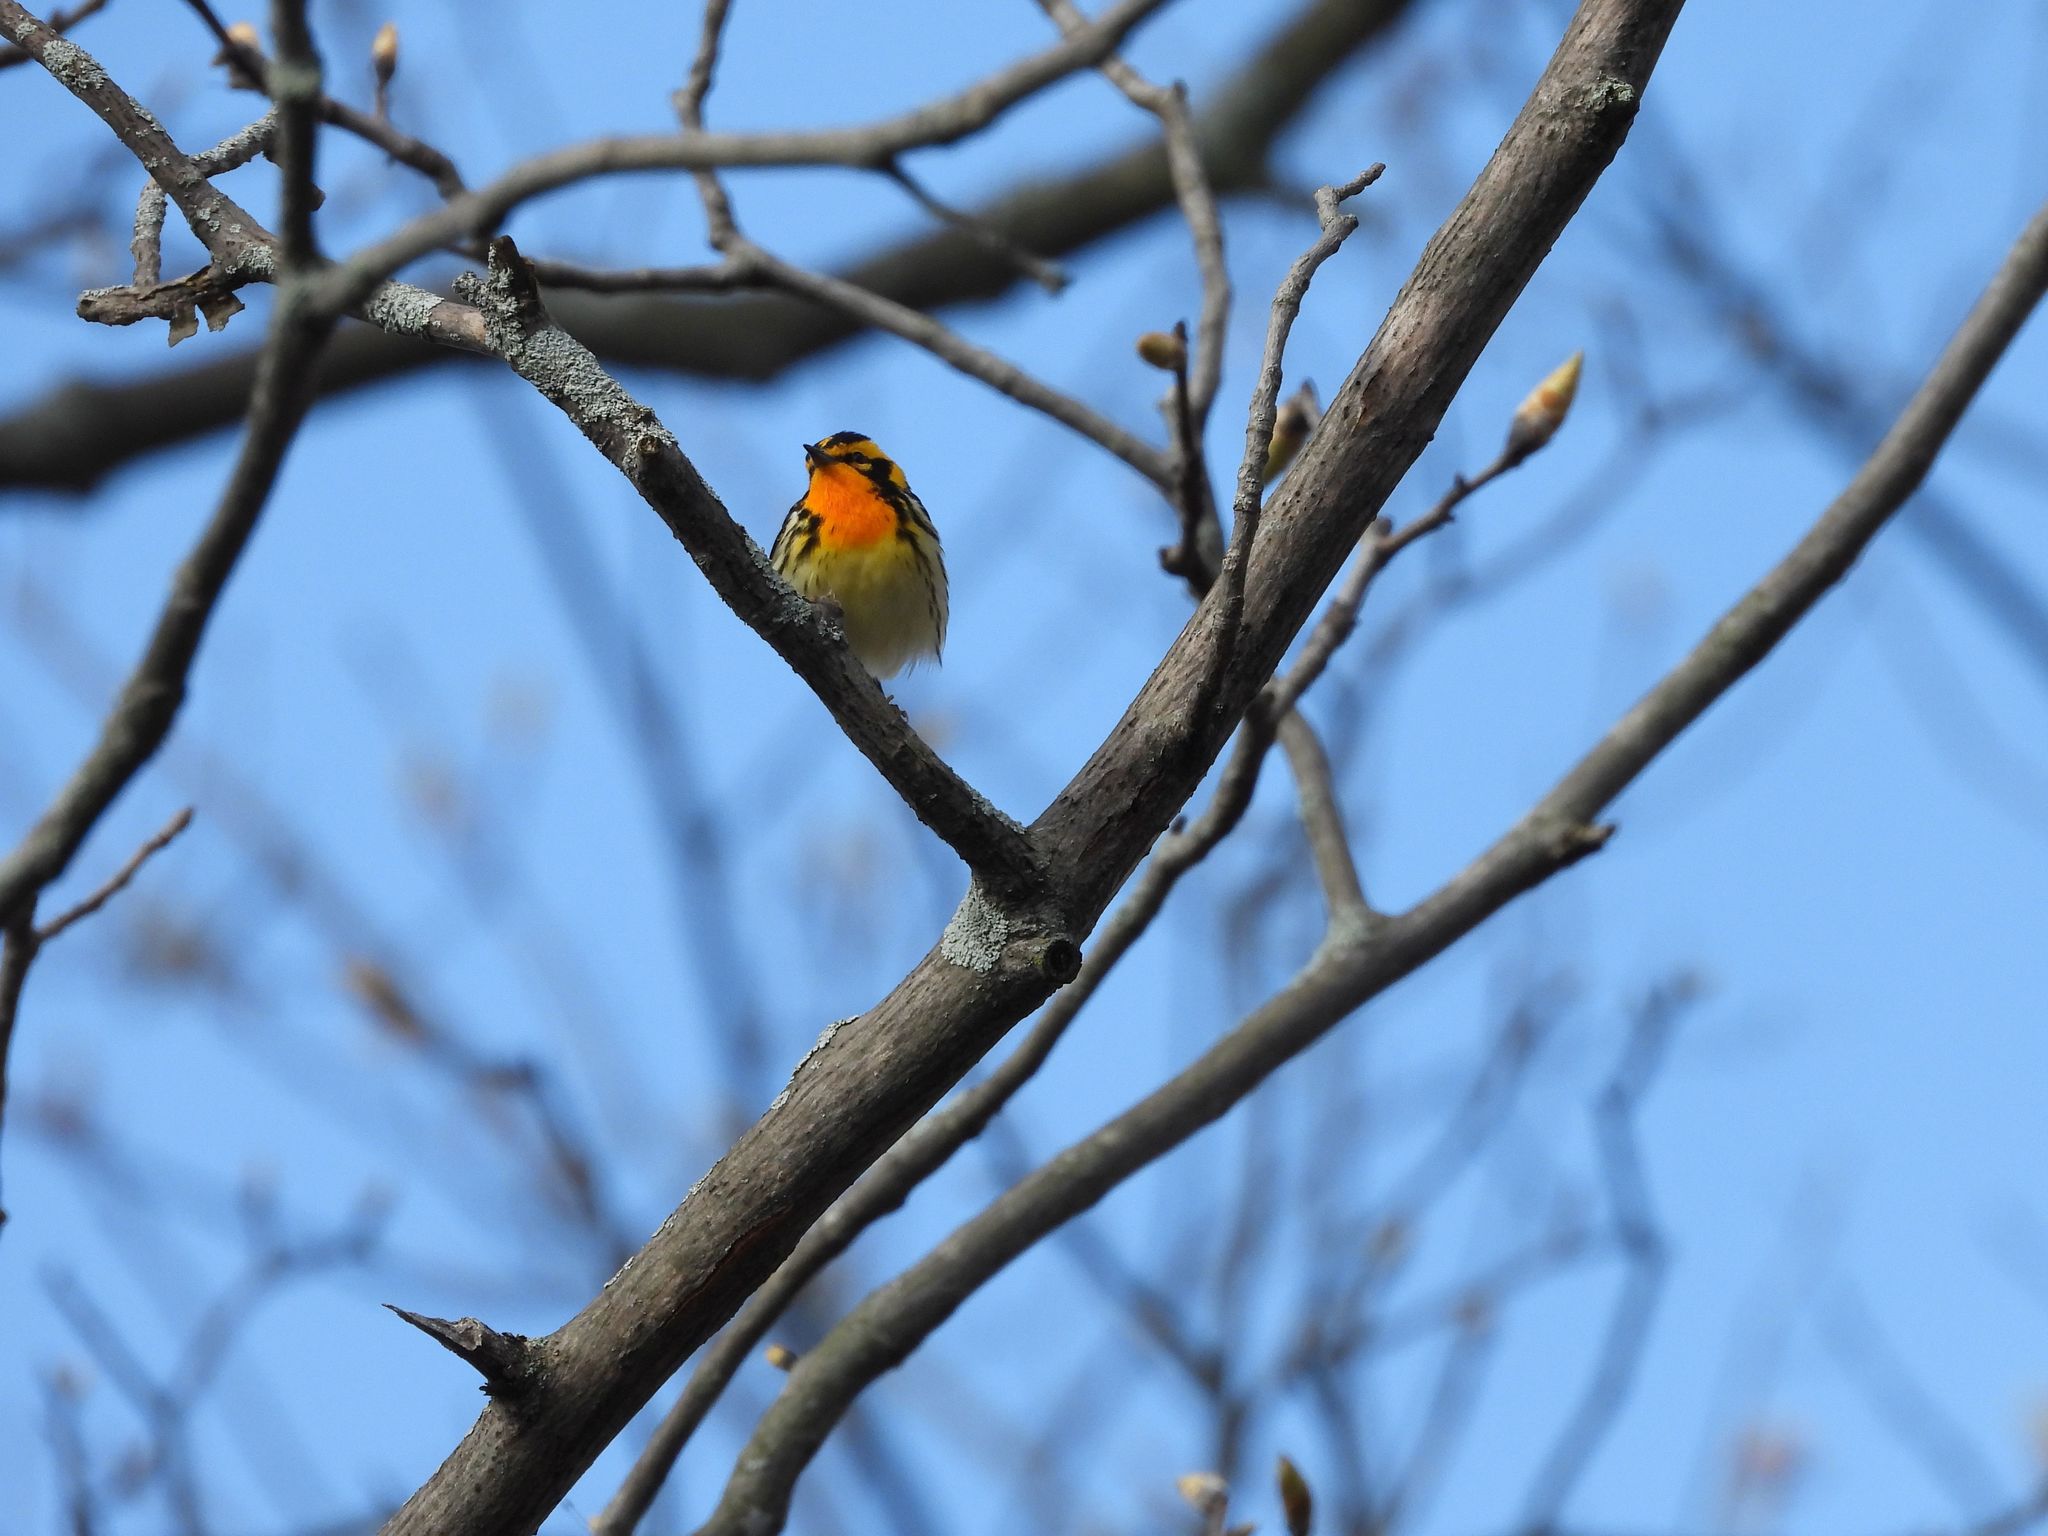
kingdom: Animalia
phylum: Chordata
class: Aves
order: Passeriformes
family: Parulidae
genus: Setophaga
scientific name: Setophaga fusca
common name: Blackburnian warbler
